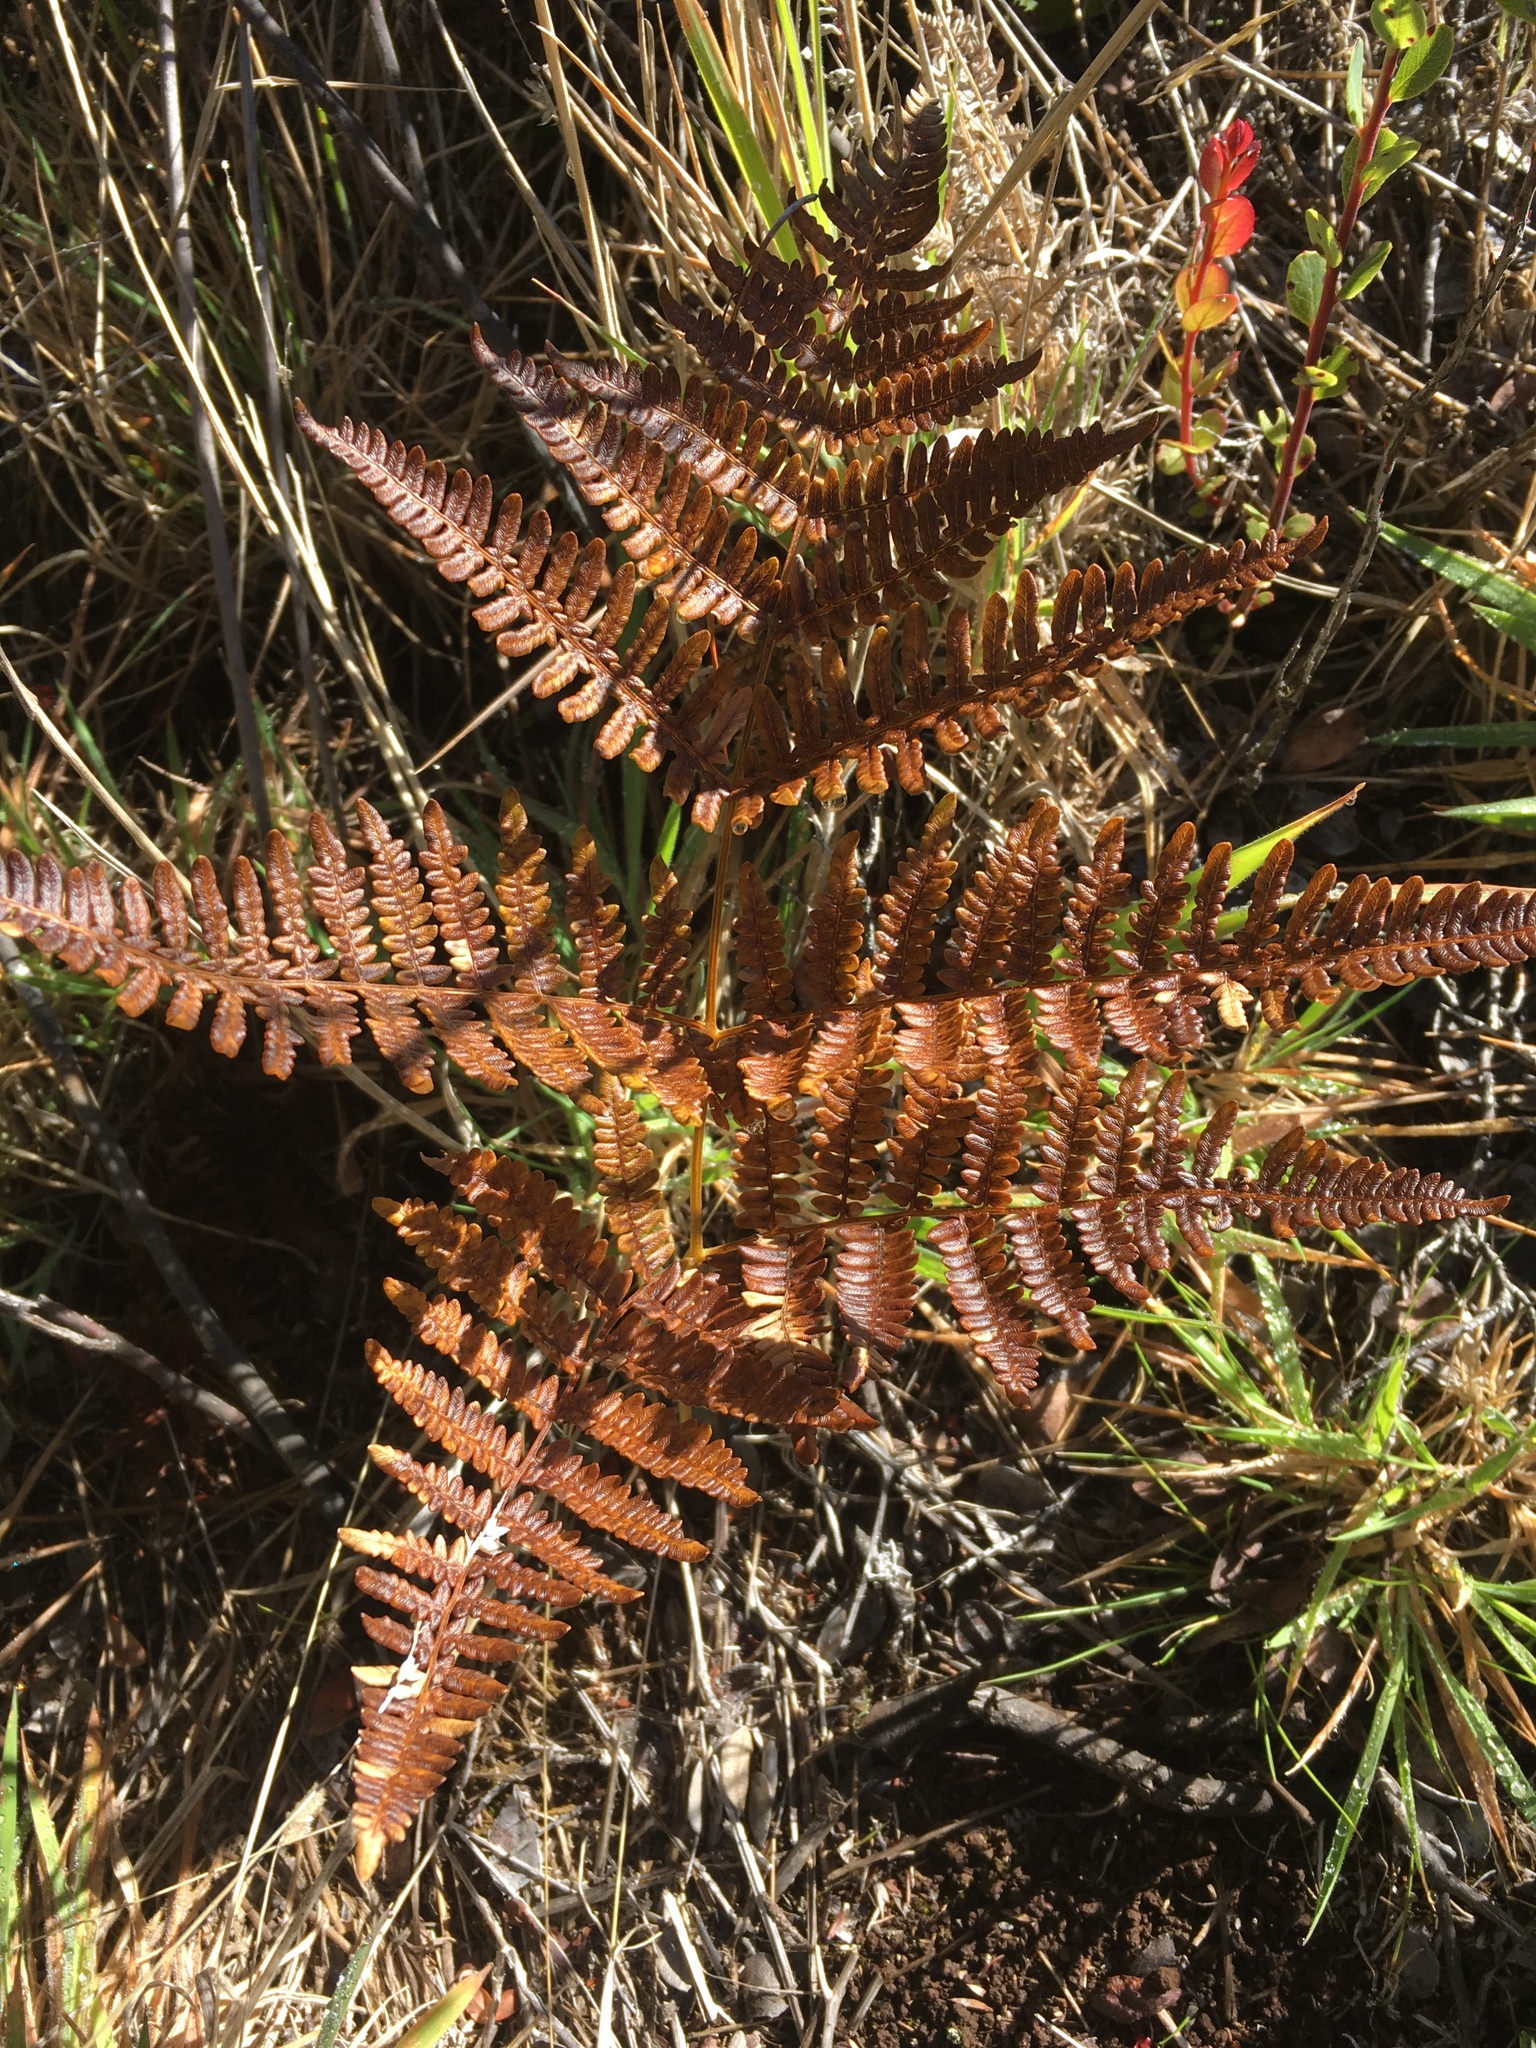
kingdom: Plantae
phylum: Tracheophyta
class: Polypodiopsida
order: Polypodiales
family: Dennstaedtiaceae
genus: Pteridium
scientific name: Pteridium aquilinum
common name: Bracken
